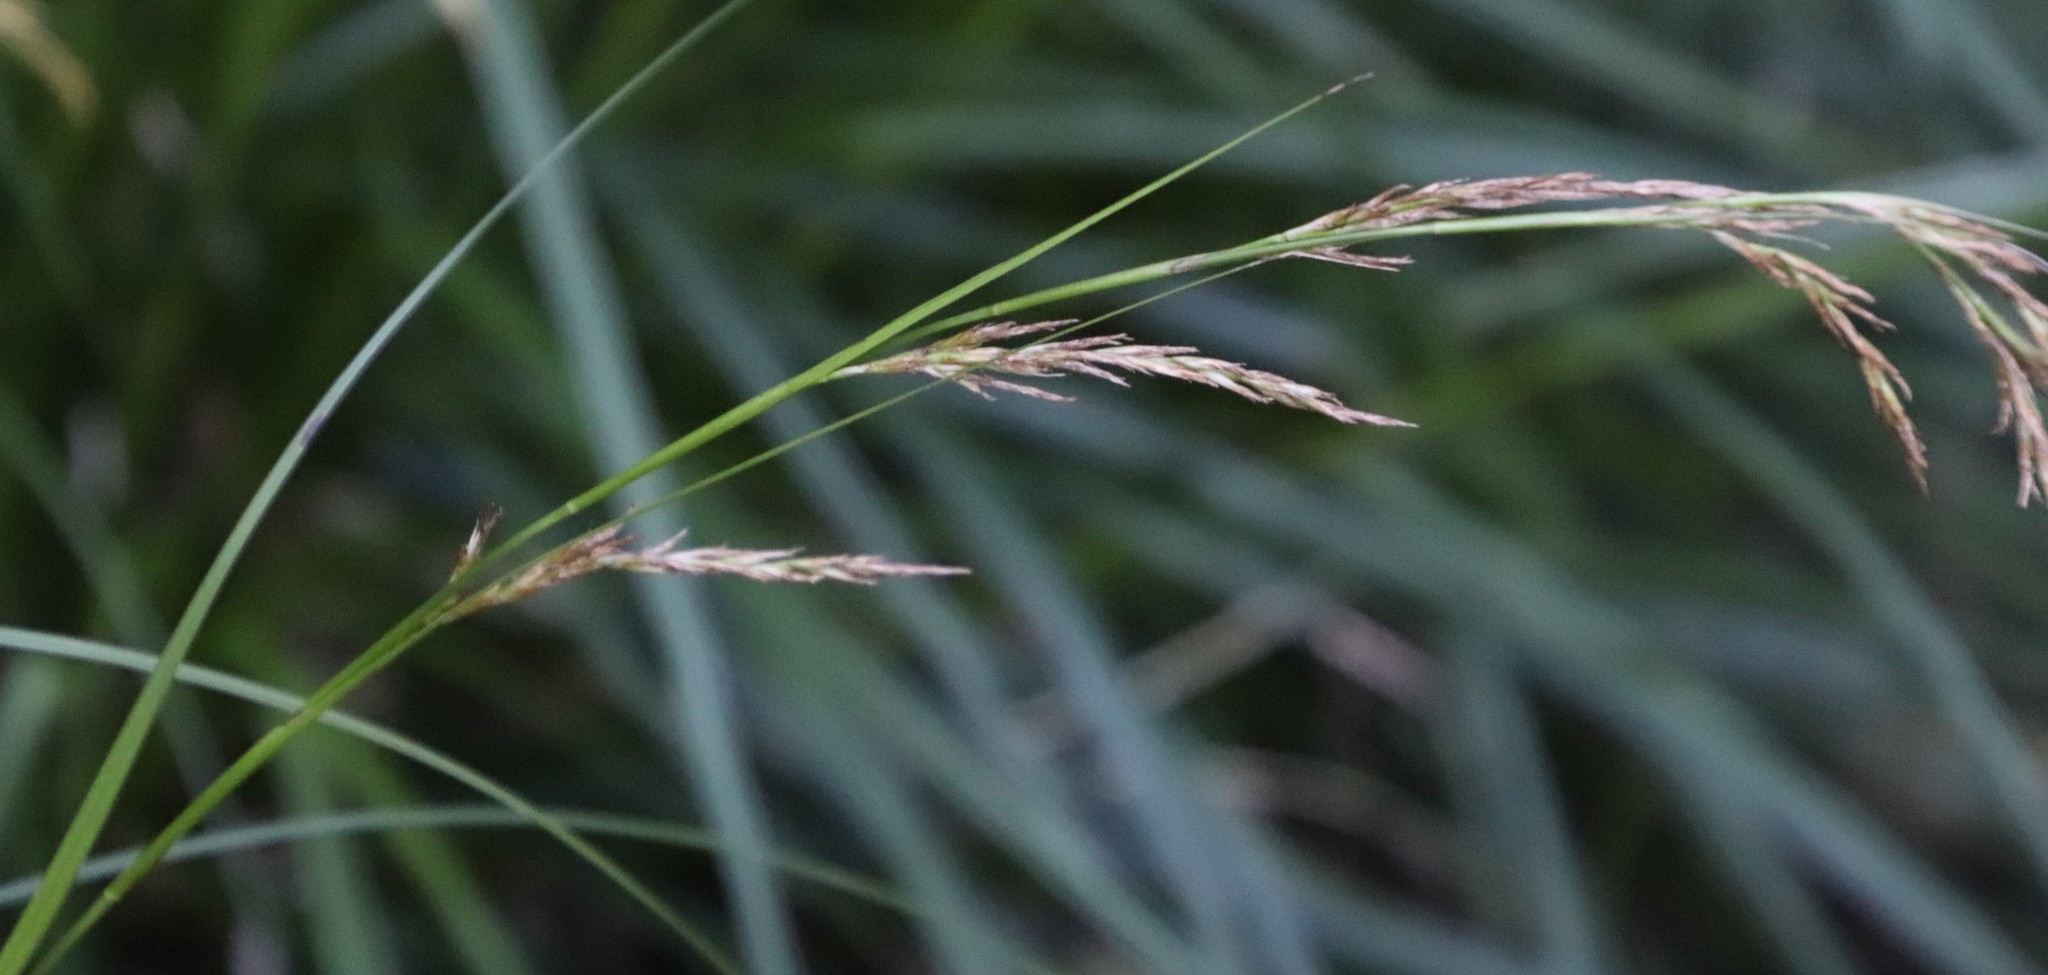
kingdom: Plantae
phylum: Tracheophyta
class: Liliopsida
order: Poales
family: Cyperaceae
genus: Carex
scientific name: Carex lancea
